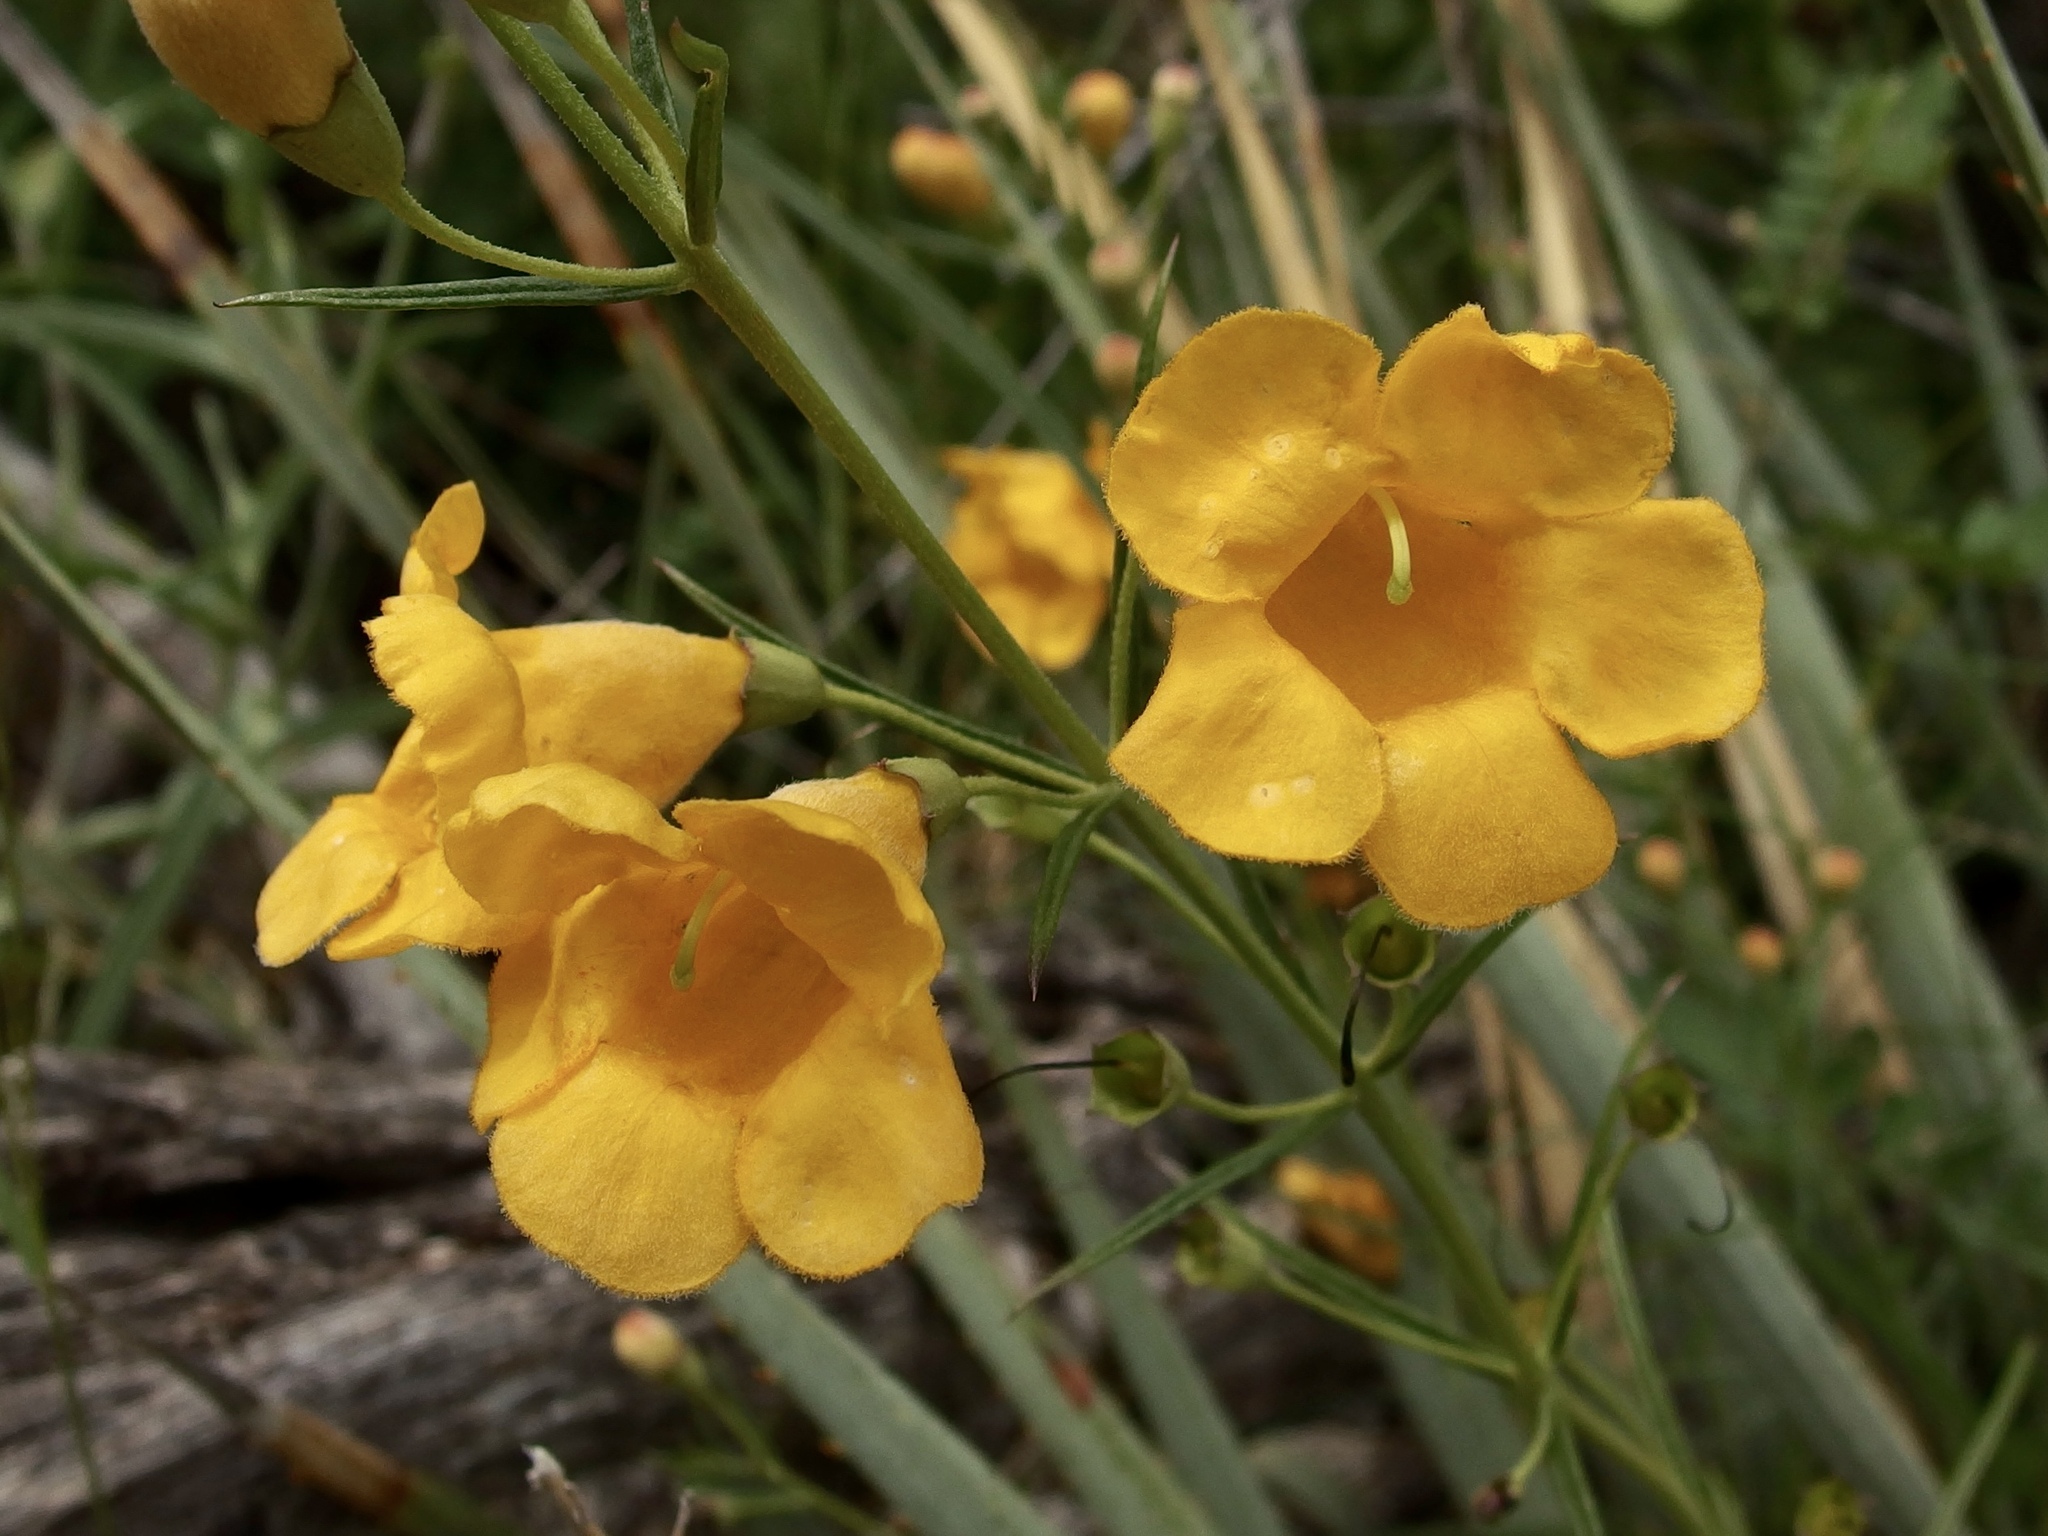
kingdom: Plantae
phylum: Tracheophyta
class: Magnoliopsida
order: Lamiales
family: Orobanchaceae
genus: Brachystigma
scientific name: Brachystigma wrightii
